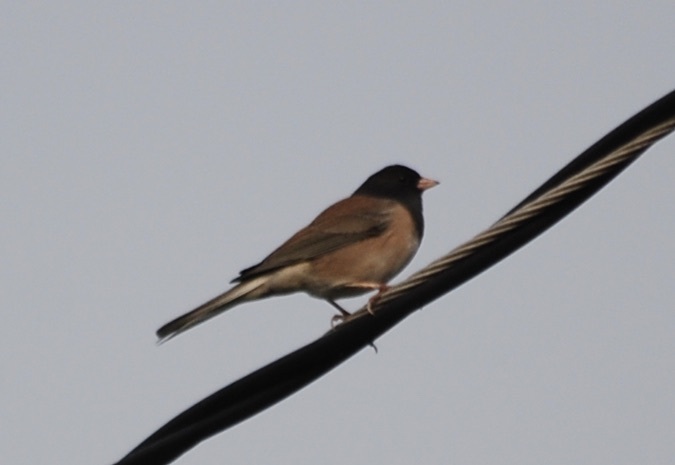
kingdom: Animalia
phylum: Chordata
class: Aves
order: Passeriformes
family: Passerellidae
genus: Junco
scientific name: Junco hyemalis
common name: Dark-eyed junco
